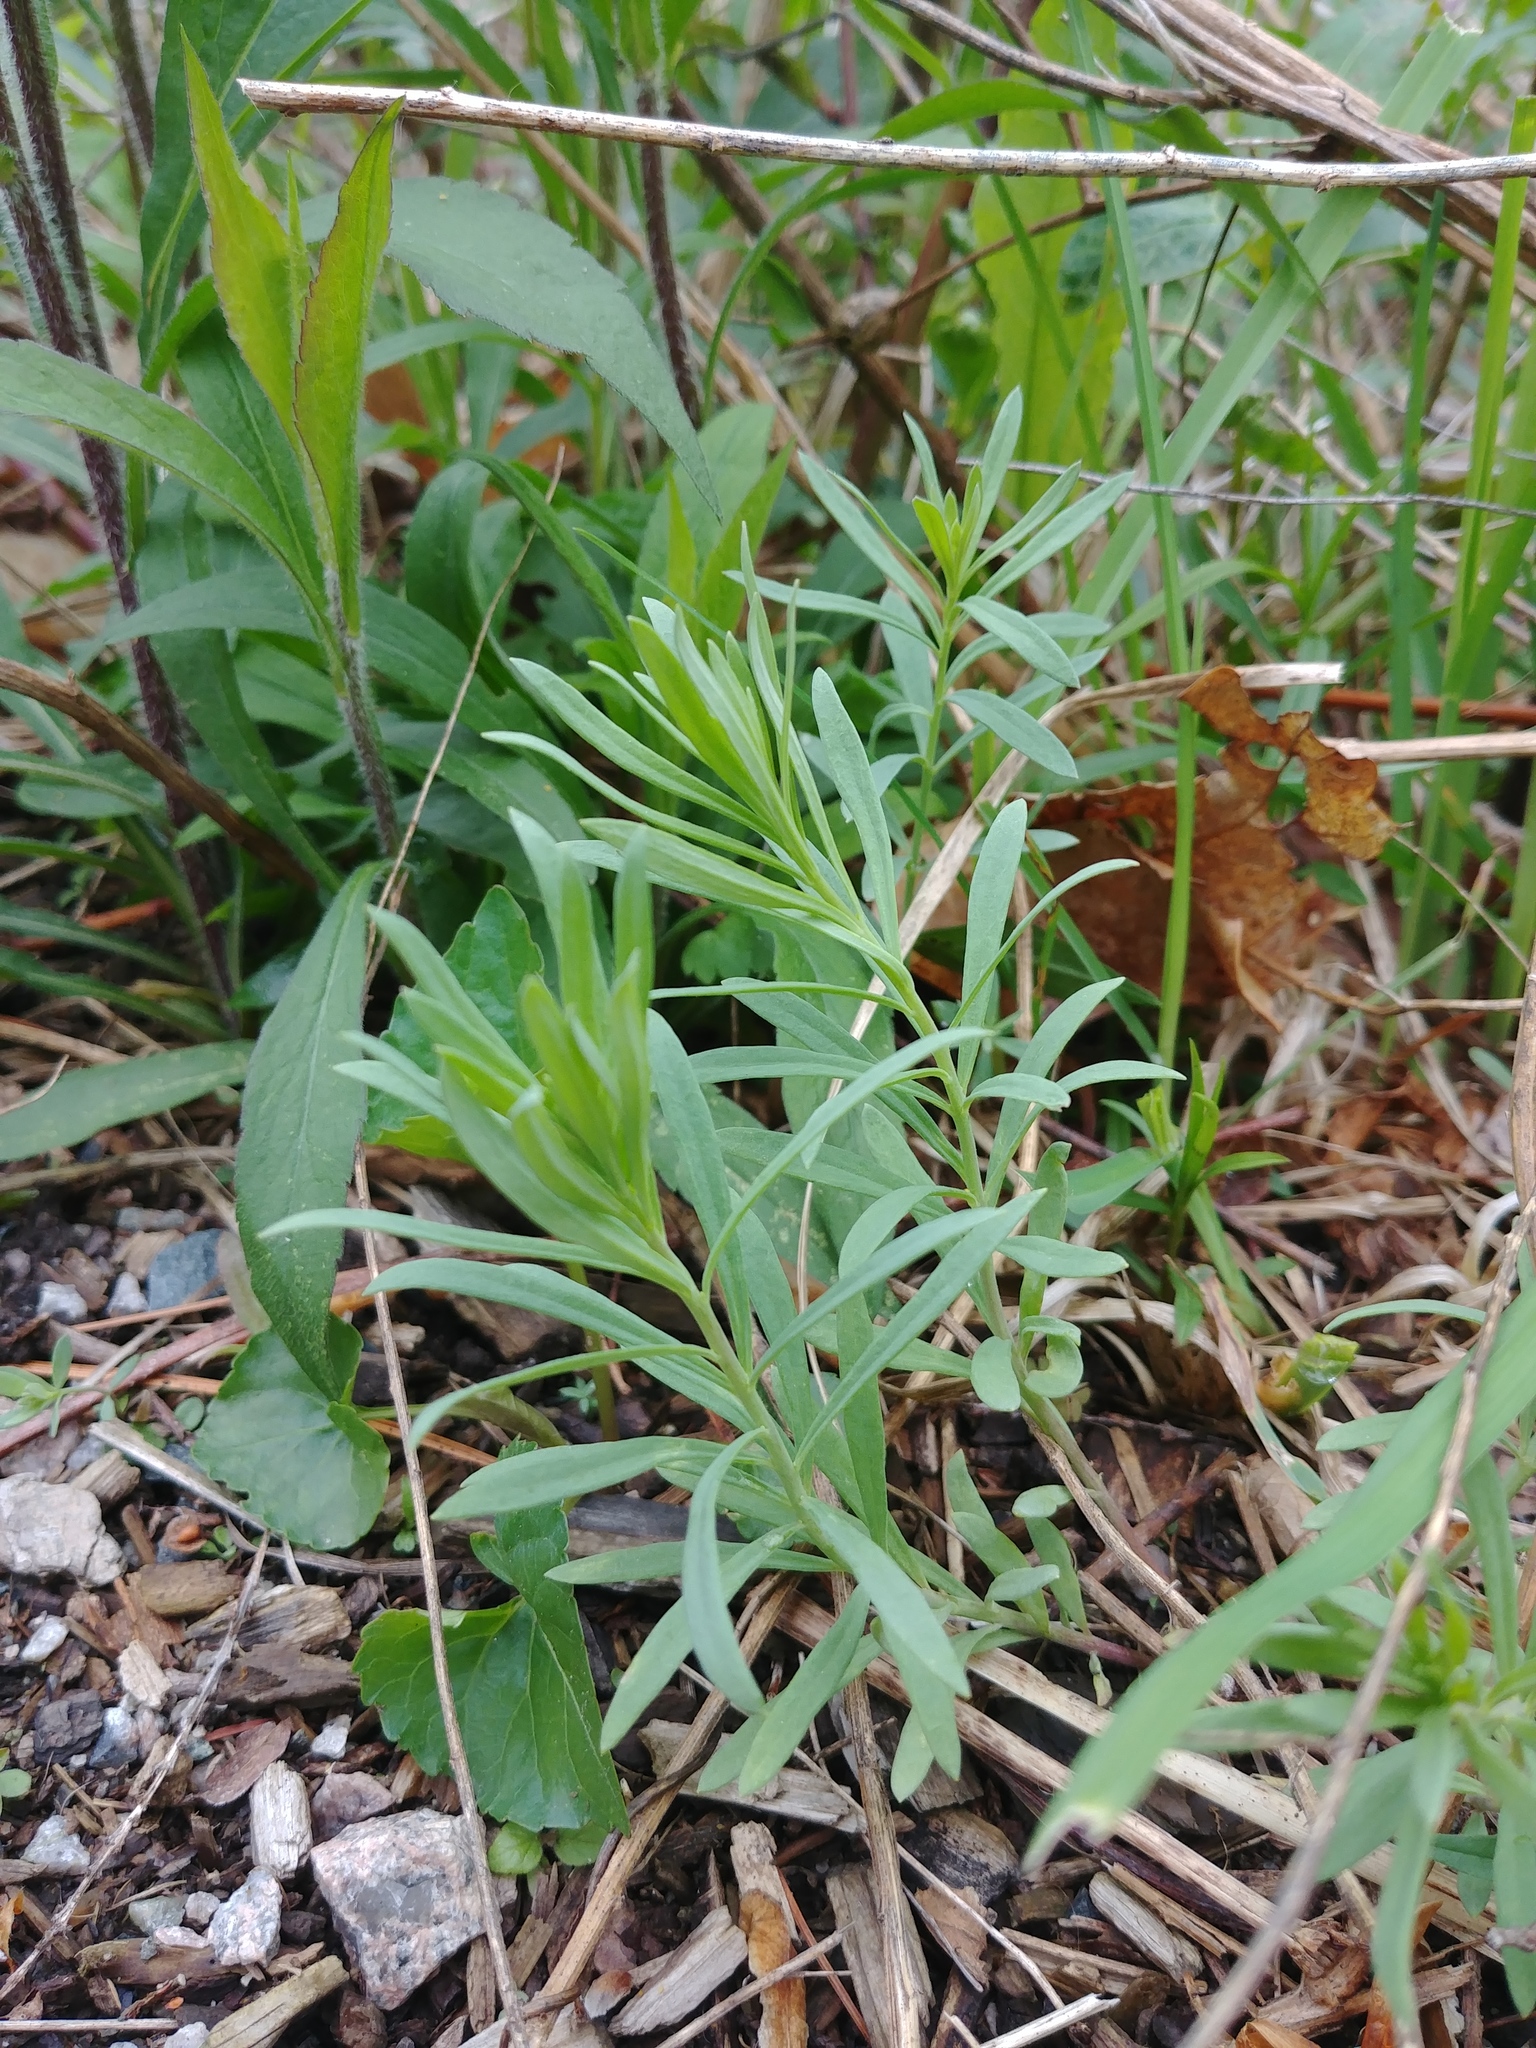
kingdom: Plantae
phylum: Tracheophyta
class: Magnoliopsida
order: Lamiales
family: Plantaginaceae
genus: Linaria
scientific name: Linaria vulgaris
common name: Butter and eggs
